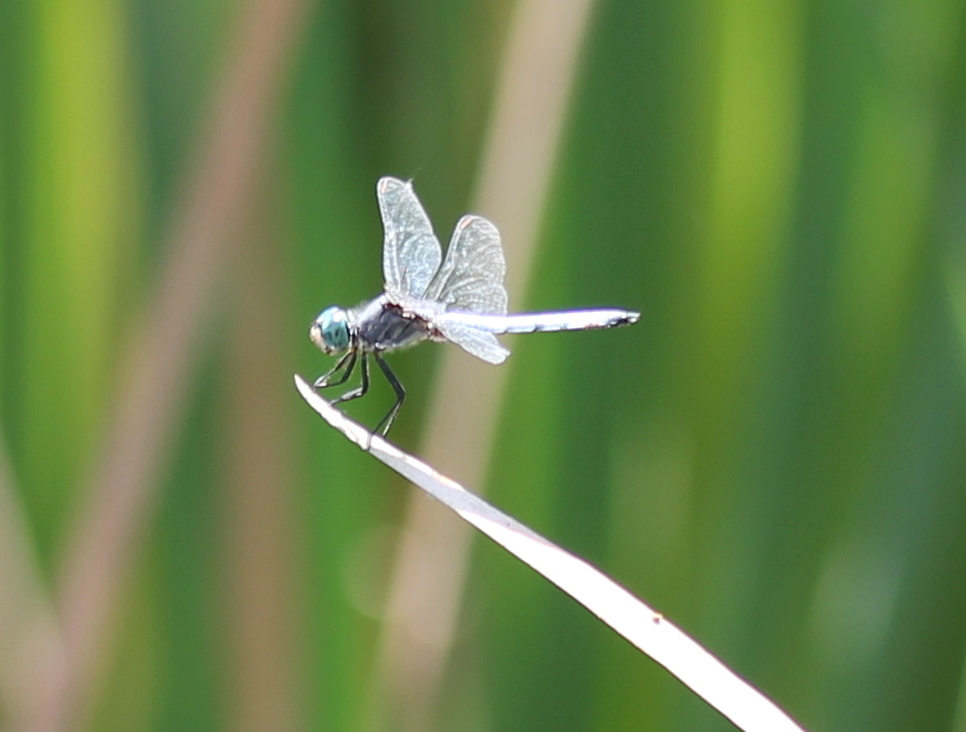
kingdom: Animalia
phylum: Arthropoda
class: Insecta
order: Odonata
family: Libellulidae
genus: Pachydiplax
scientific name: Pachydiplax longipennis
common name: Blue dasher
